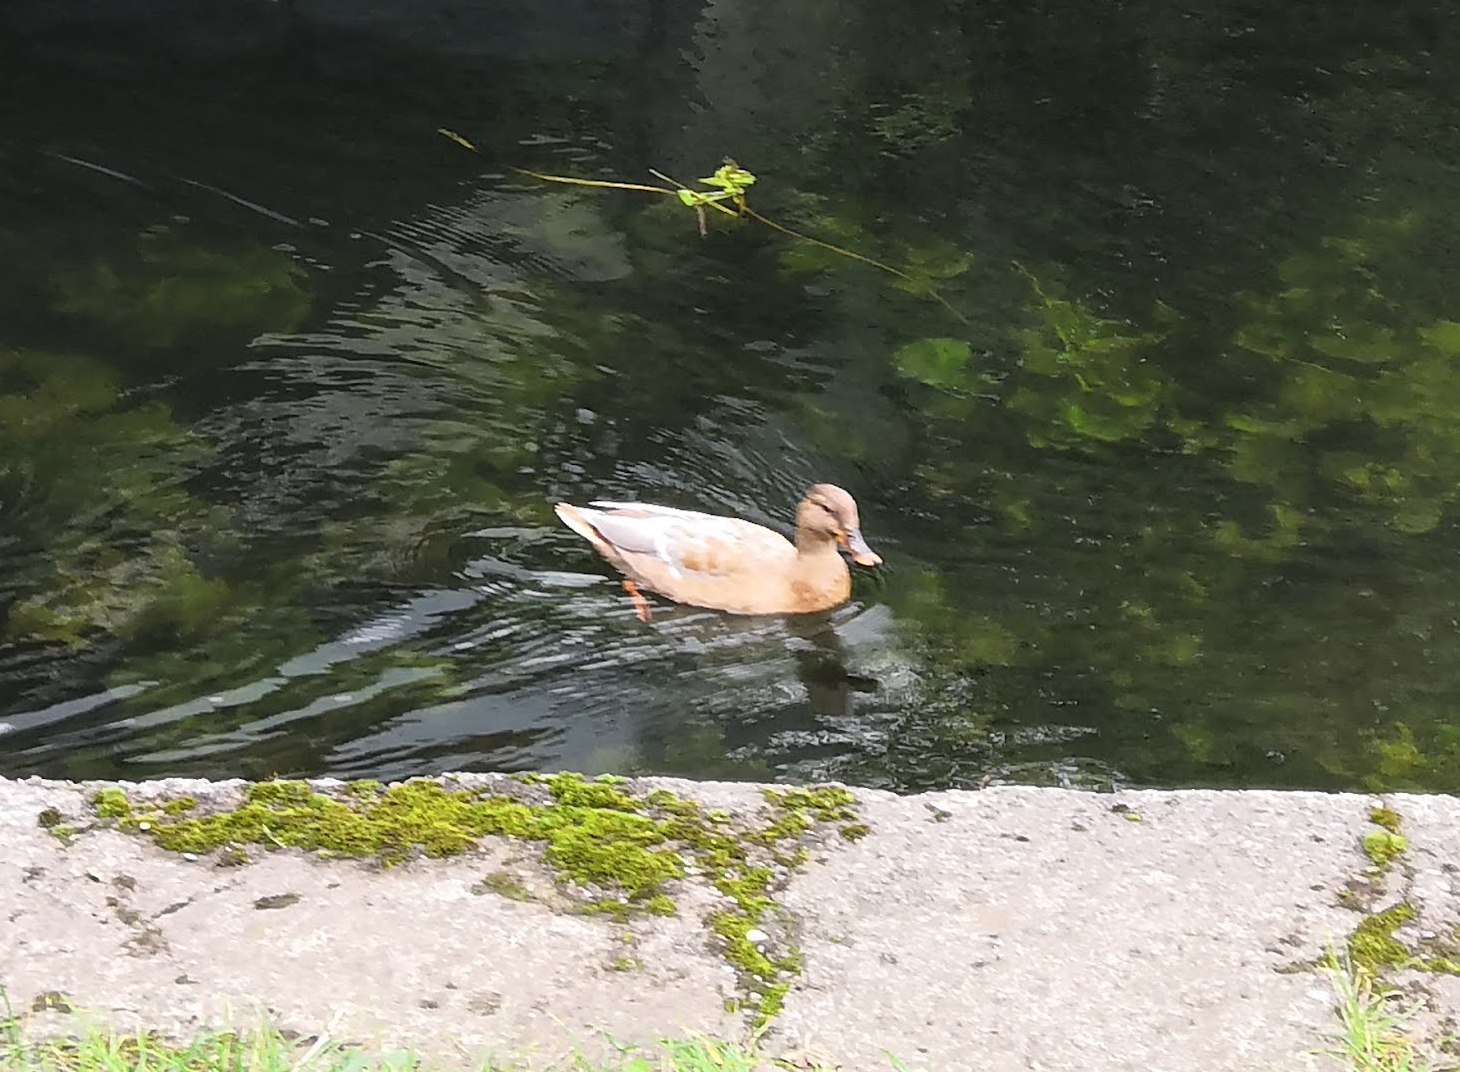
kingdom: Animalia
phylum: Chordata
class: Aves
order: Anseriformes
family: Anatidae
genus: Anas
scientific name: Anas platyrhynchos
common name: Mallard
